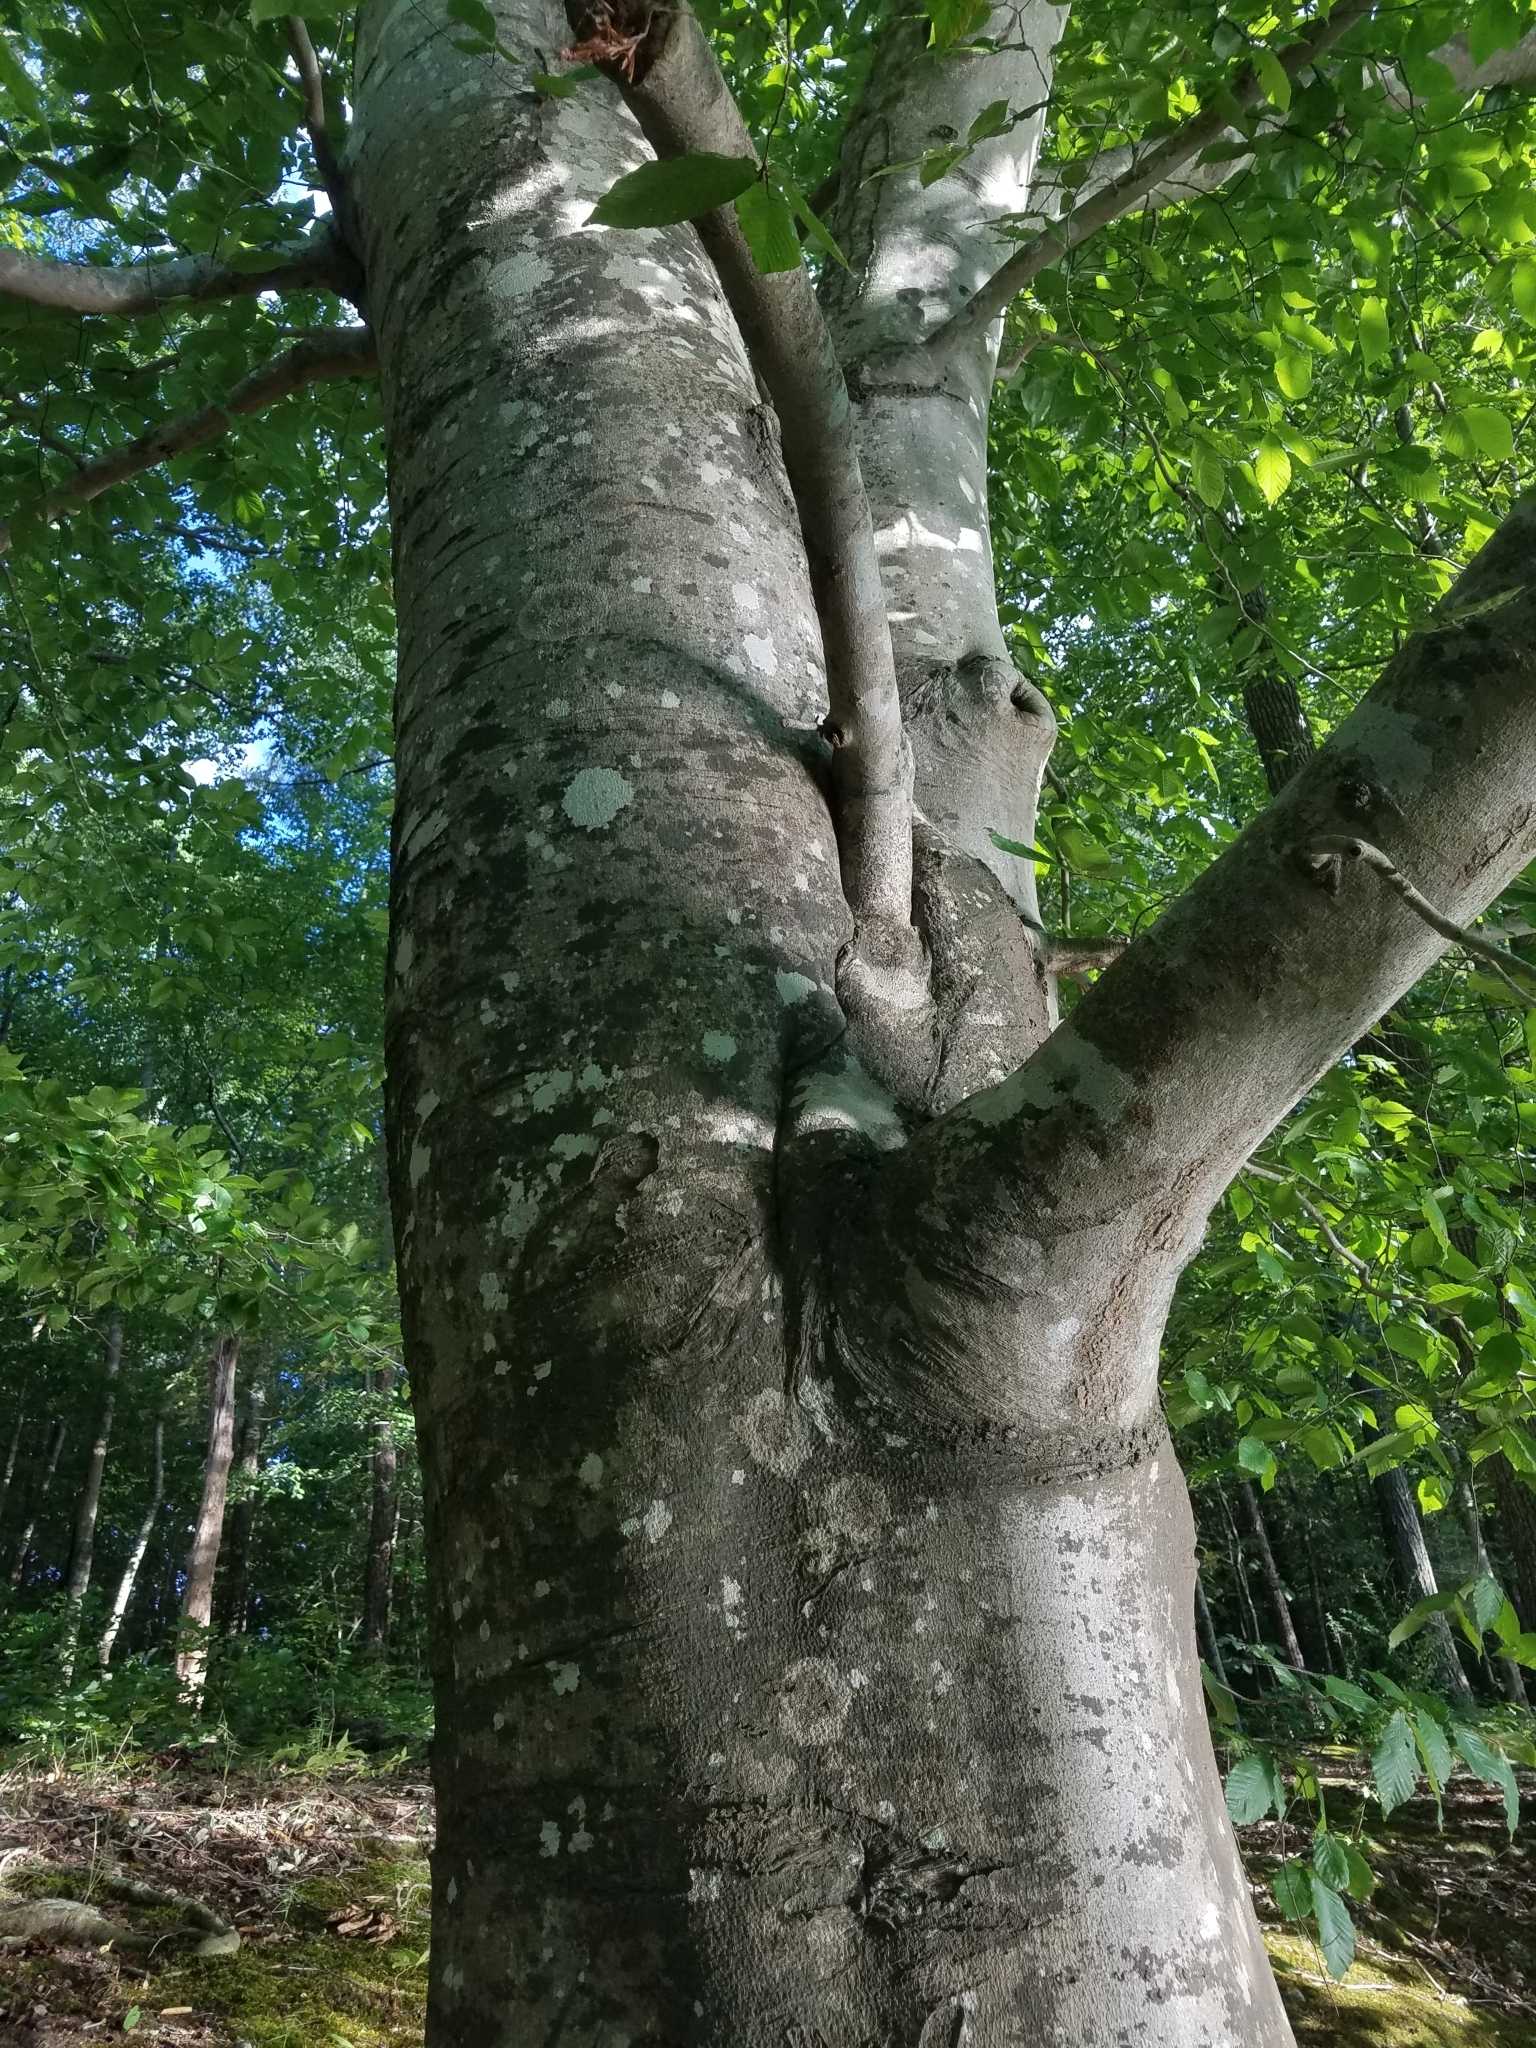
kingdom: Plantae
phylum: Tracheophyta
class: Magnoliopsida
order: Fagales
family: Fagaceae
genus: Fagus
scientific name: Fagus grandifolia
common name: American beech
